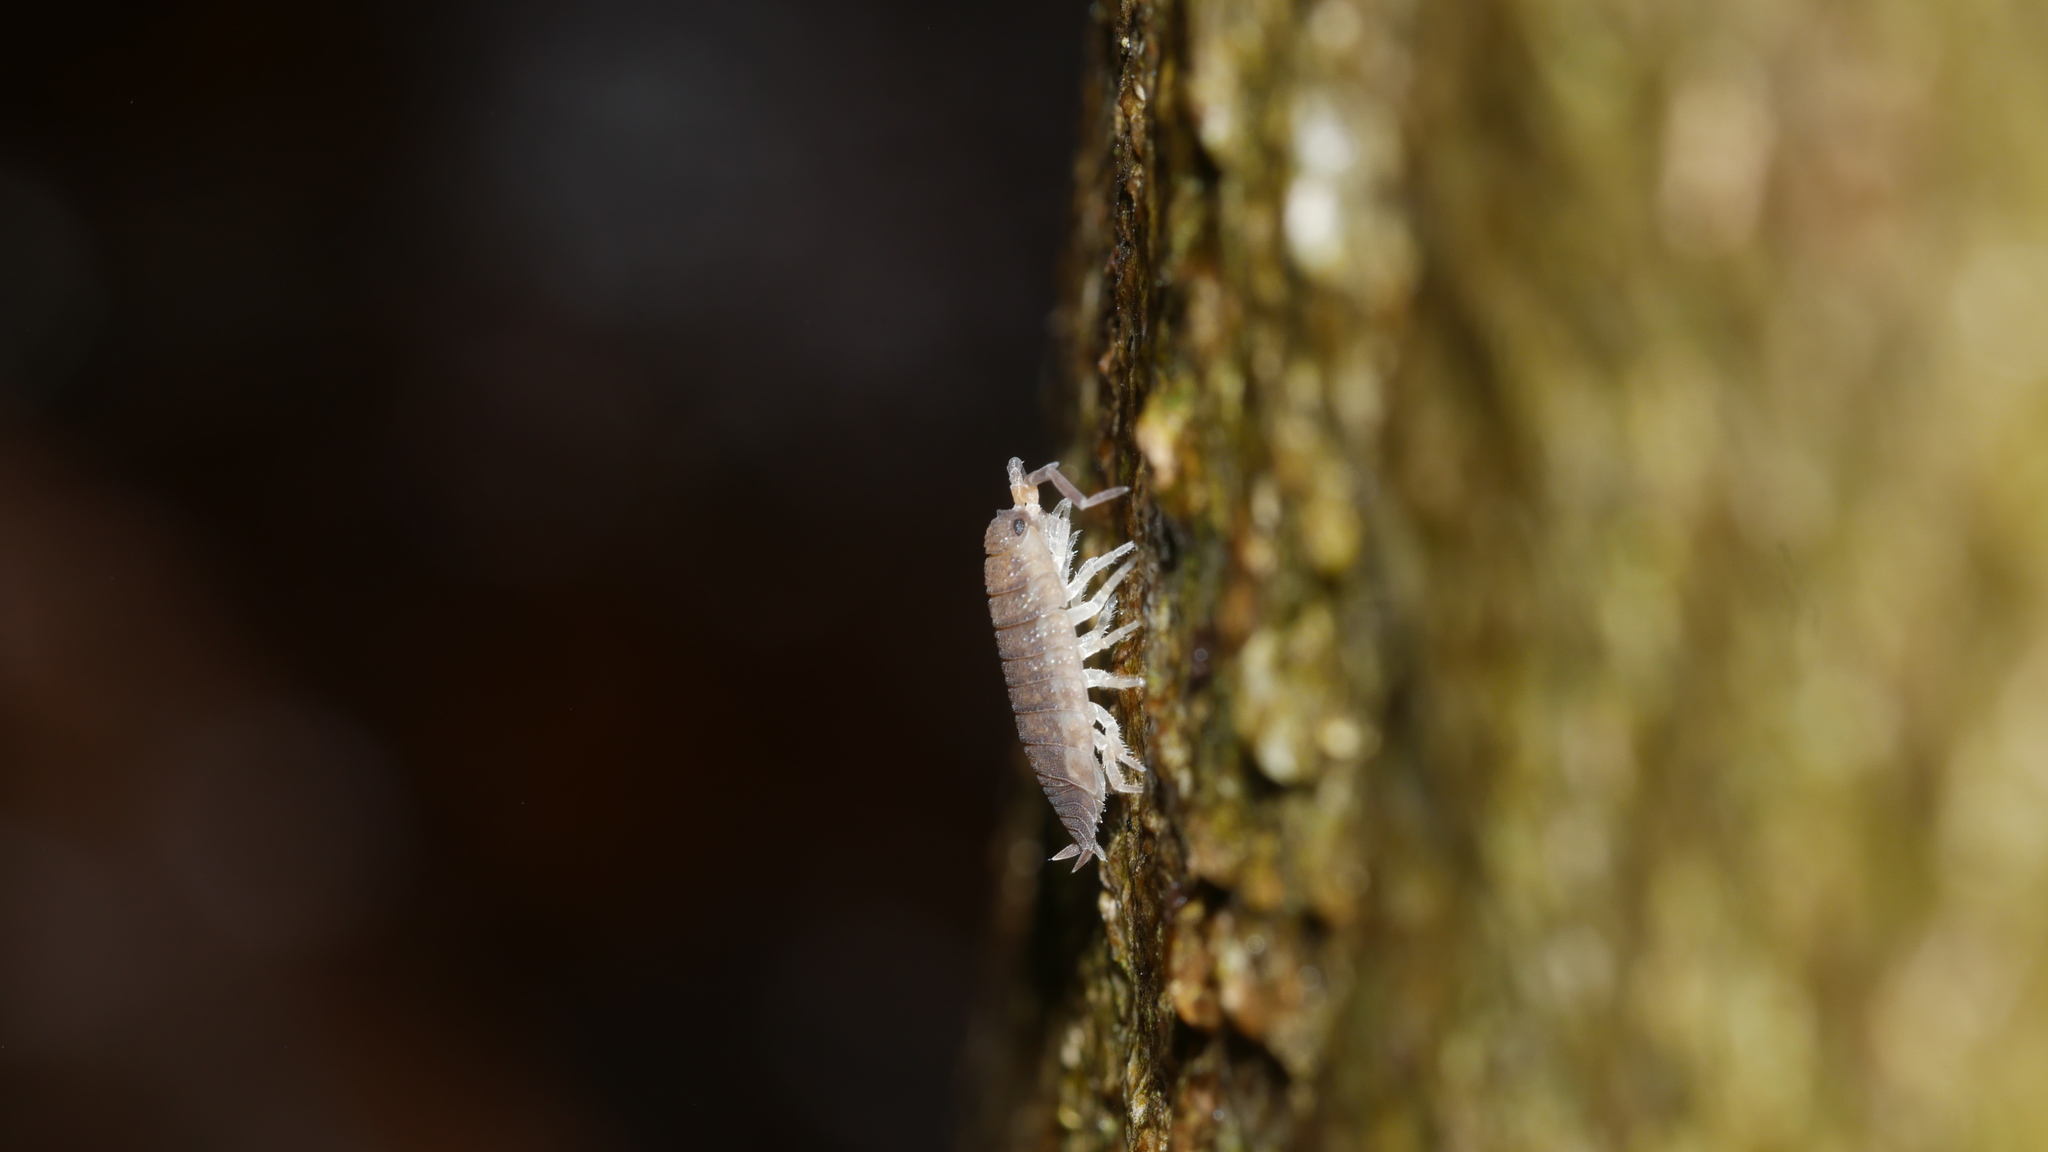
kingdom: Animalia
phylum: Arthropoda
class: Malacostraca
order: Isopoda
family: Porcellionidae
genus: Porcellio
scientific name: Porcellio scaber
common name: Common rough woodlouse
